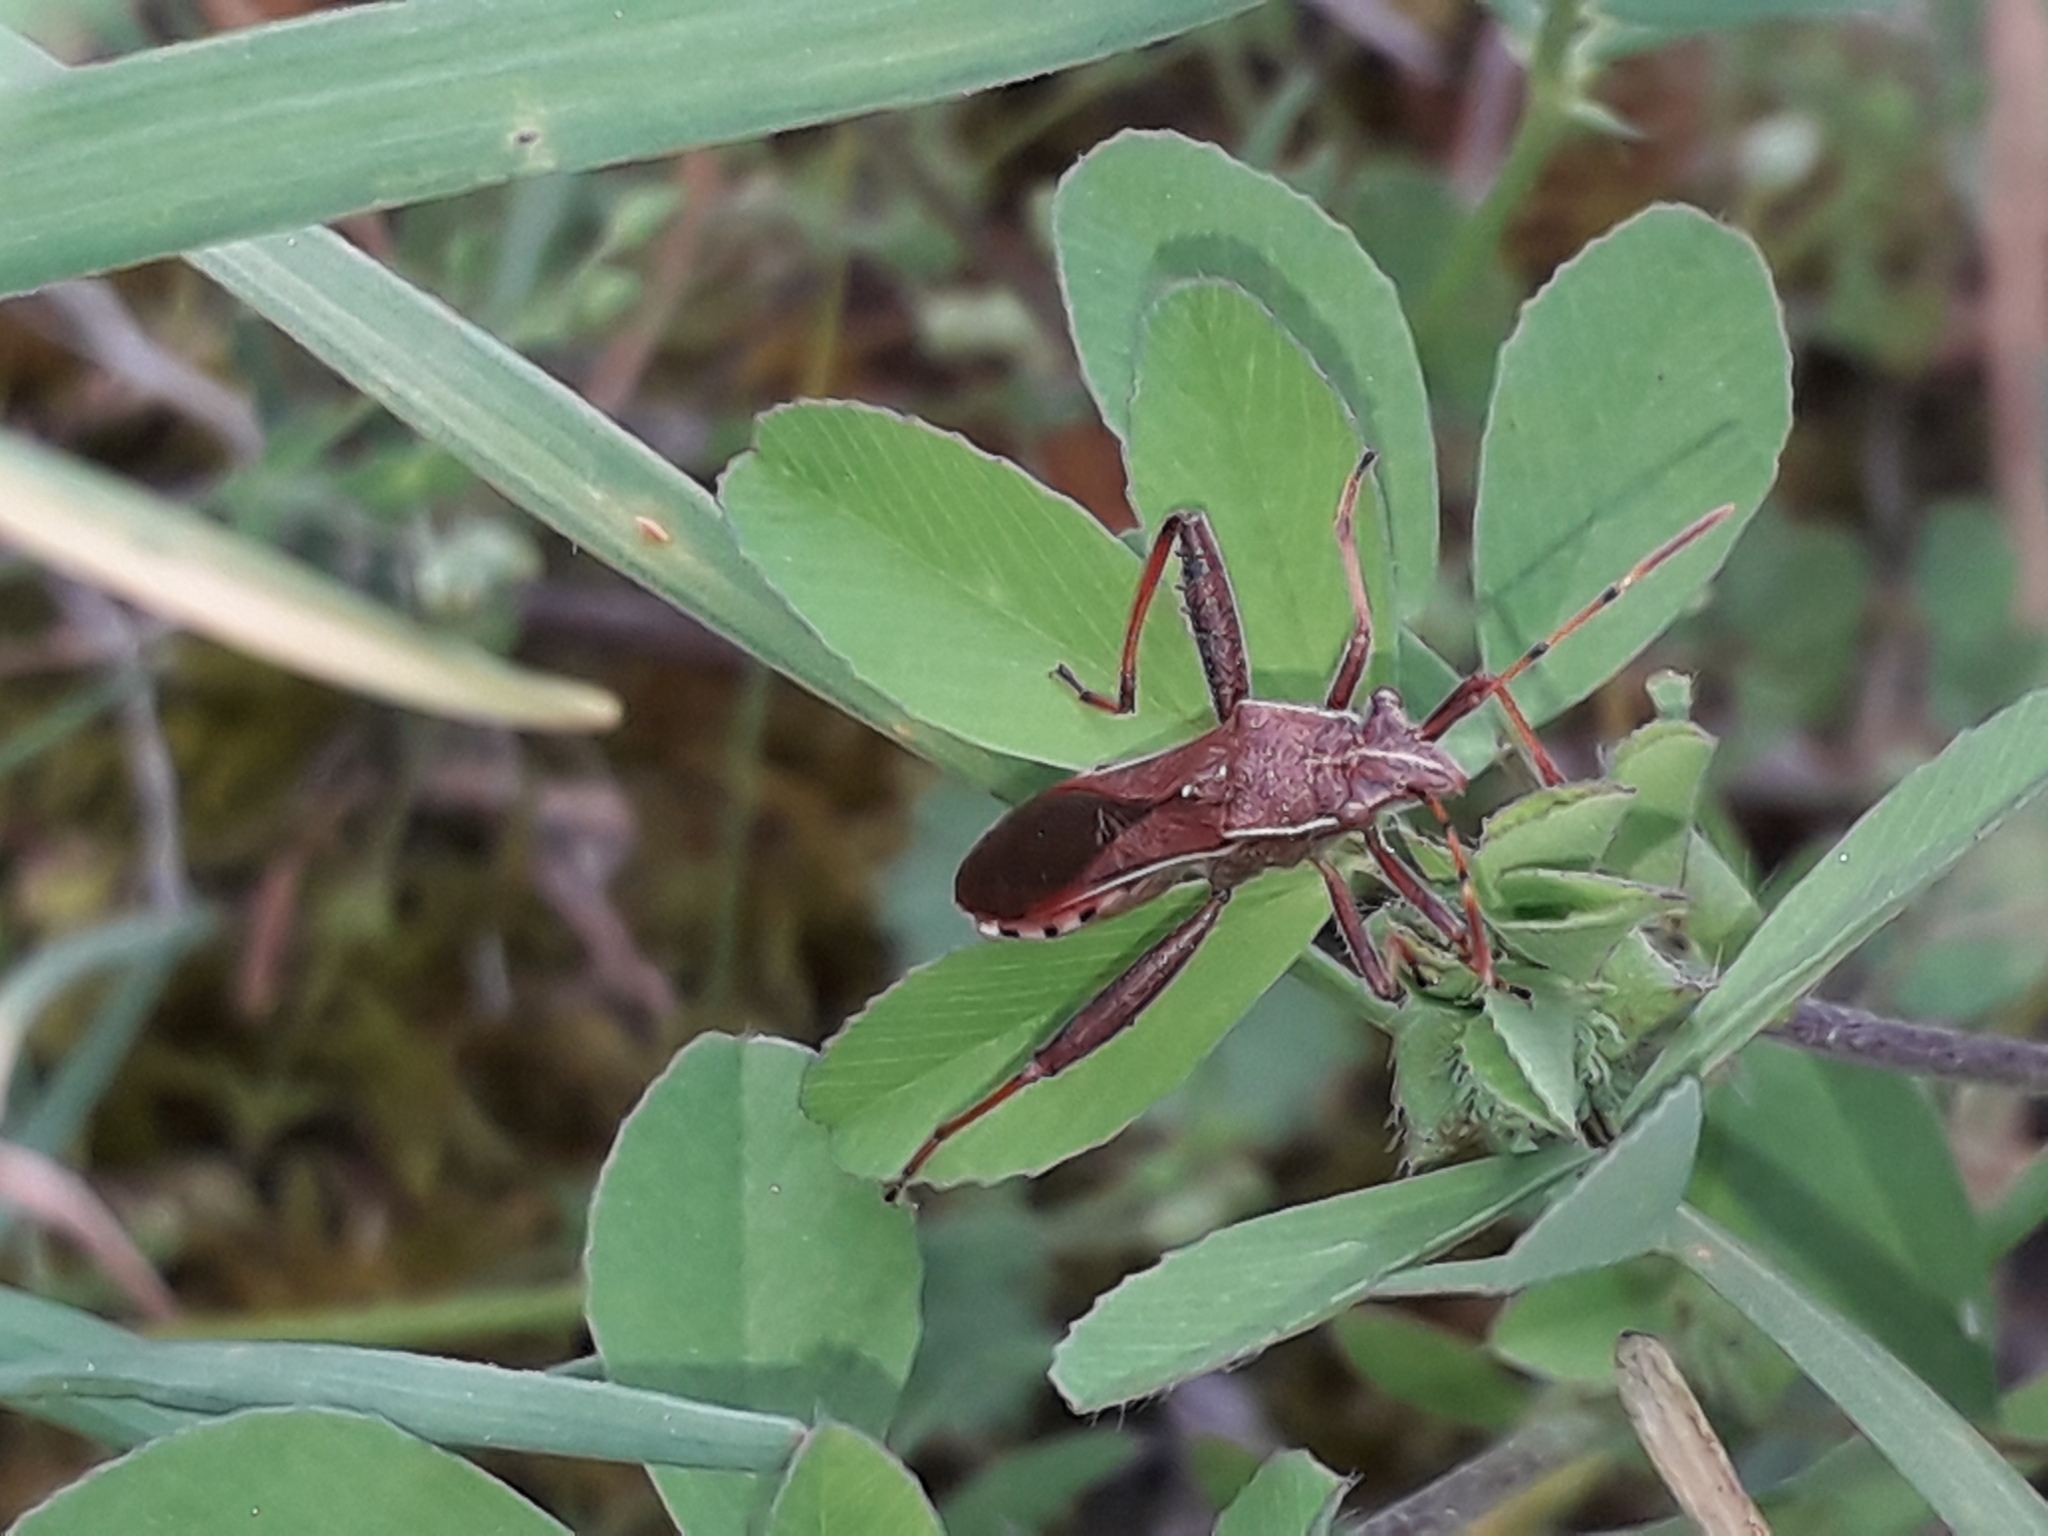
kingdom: Animalia
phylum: Arthropoda
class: Insecta
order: Hemiptera
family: Alydidae
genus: Camptopus
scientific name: Camptopus lateralis
